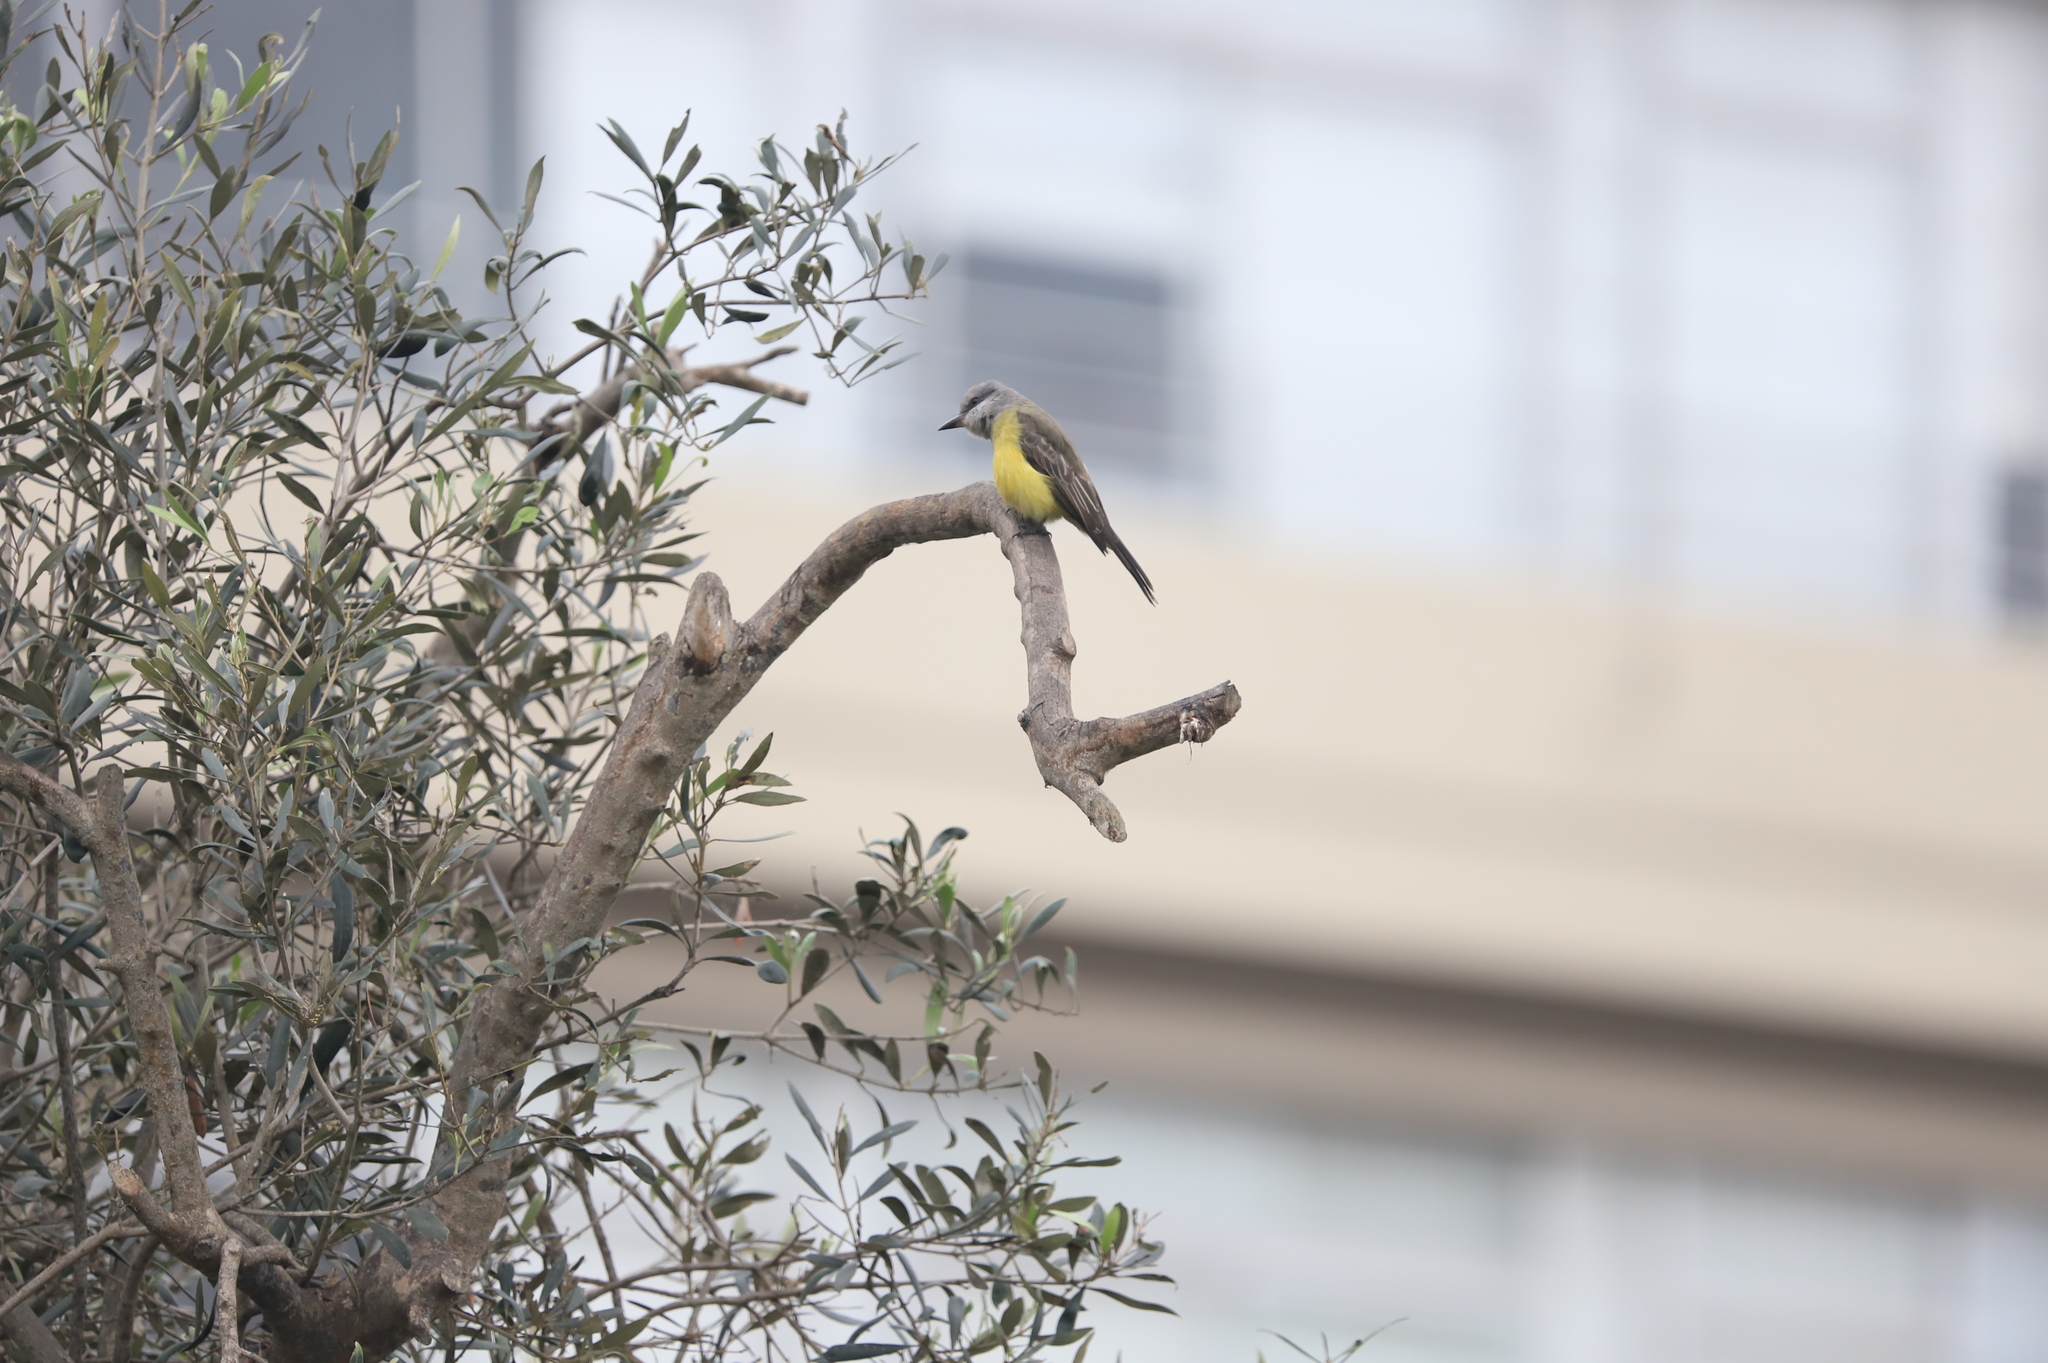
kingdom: Animalia
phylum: Chordata
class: Aves
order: Passeriformes
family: Tyrannidae
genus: Tyrannus
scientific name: Tyrannus melancholicus
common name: Tropical kingbird
